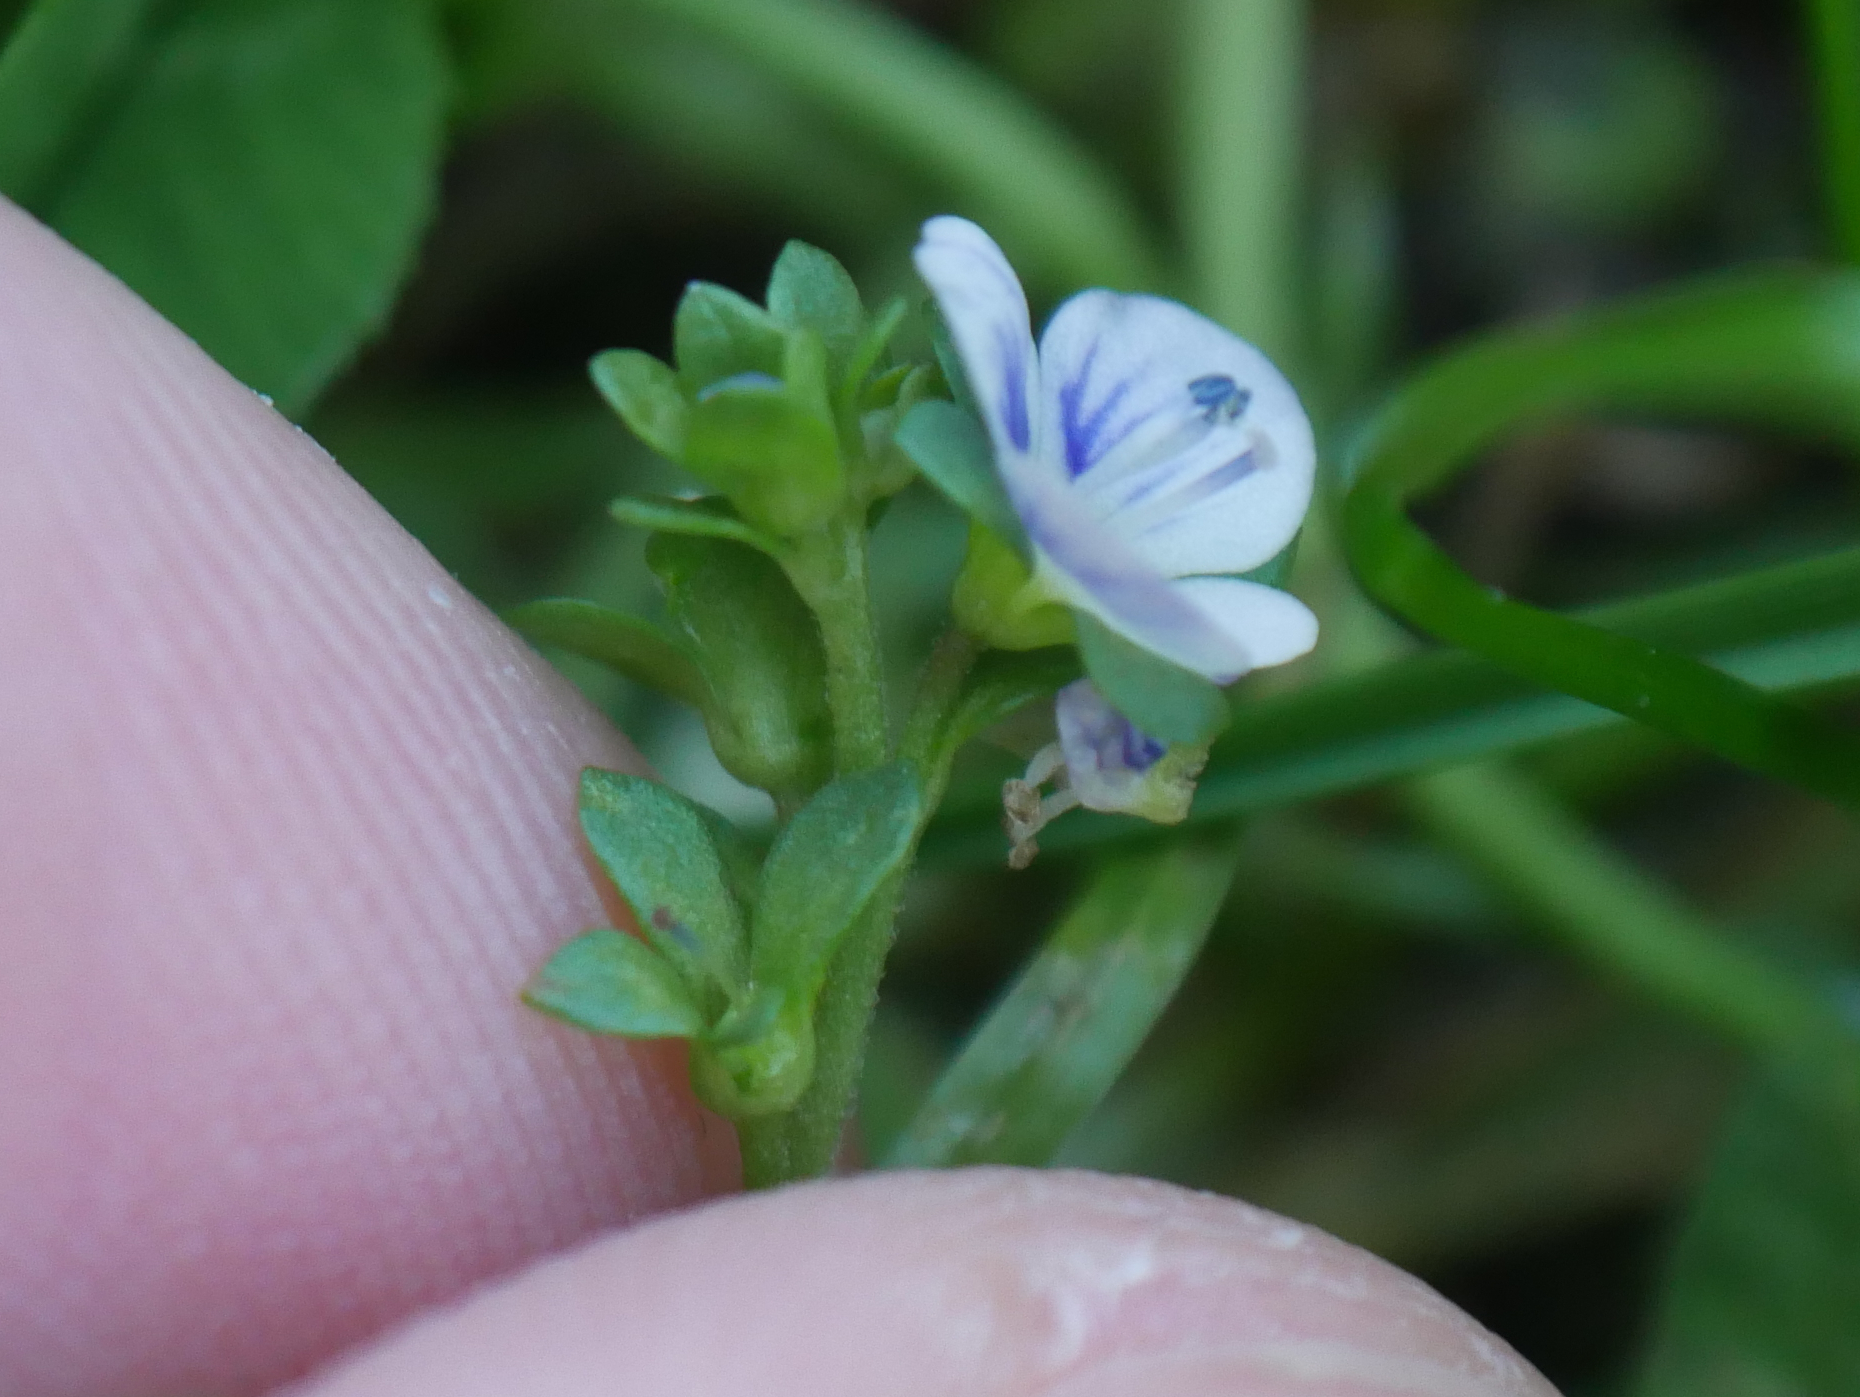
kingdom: Plantae
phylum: Tracheophyta
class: Magnoliopsida
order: Lamiales
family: Plantaginaceae
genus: Veronica
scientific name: Veronica serpyllifolia
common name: Thyme-leaved speedwell
